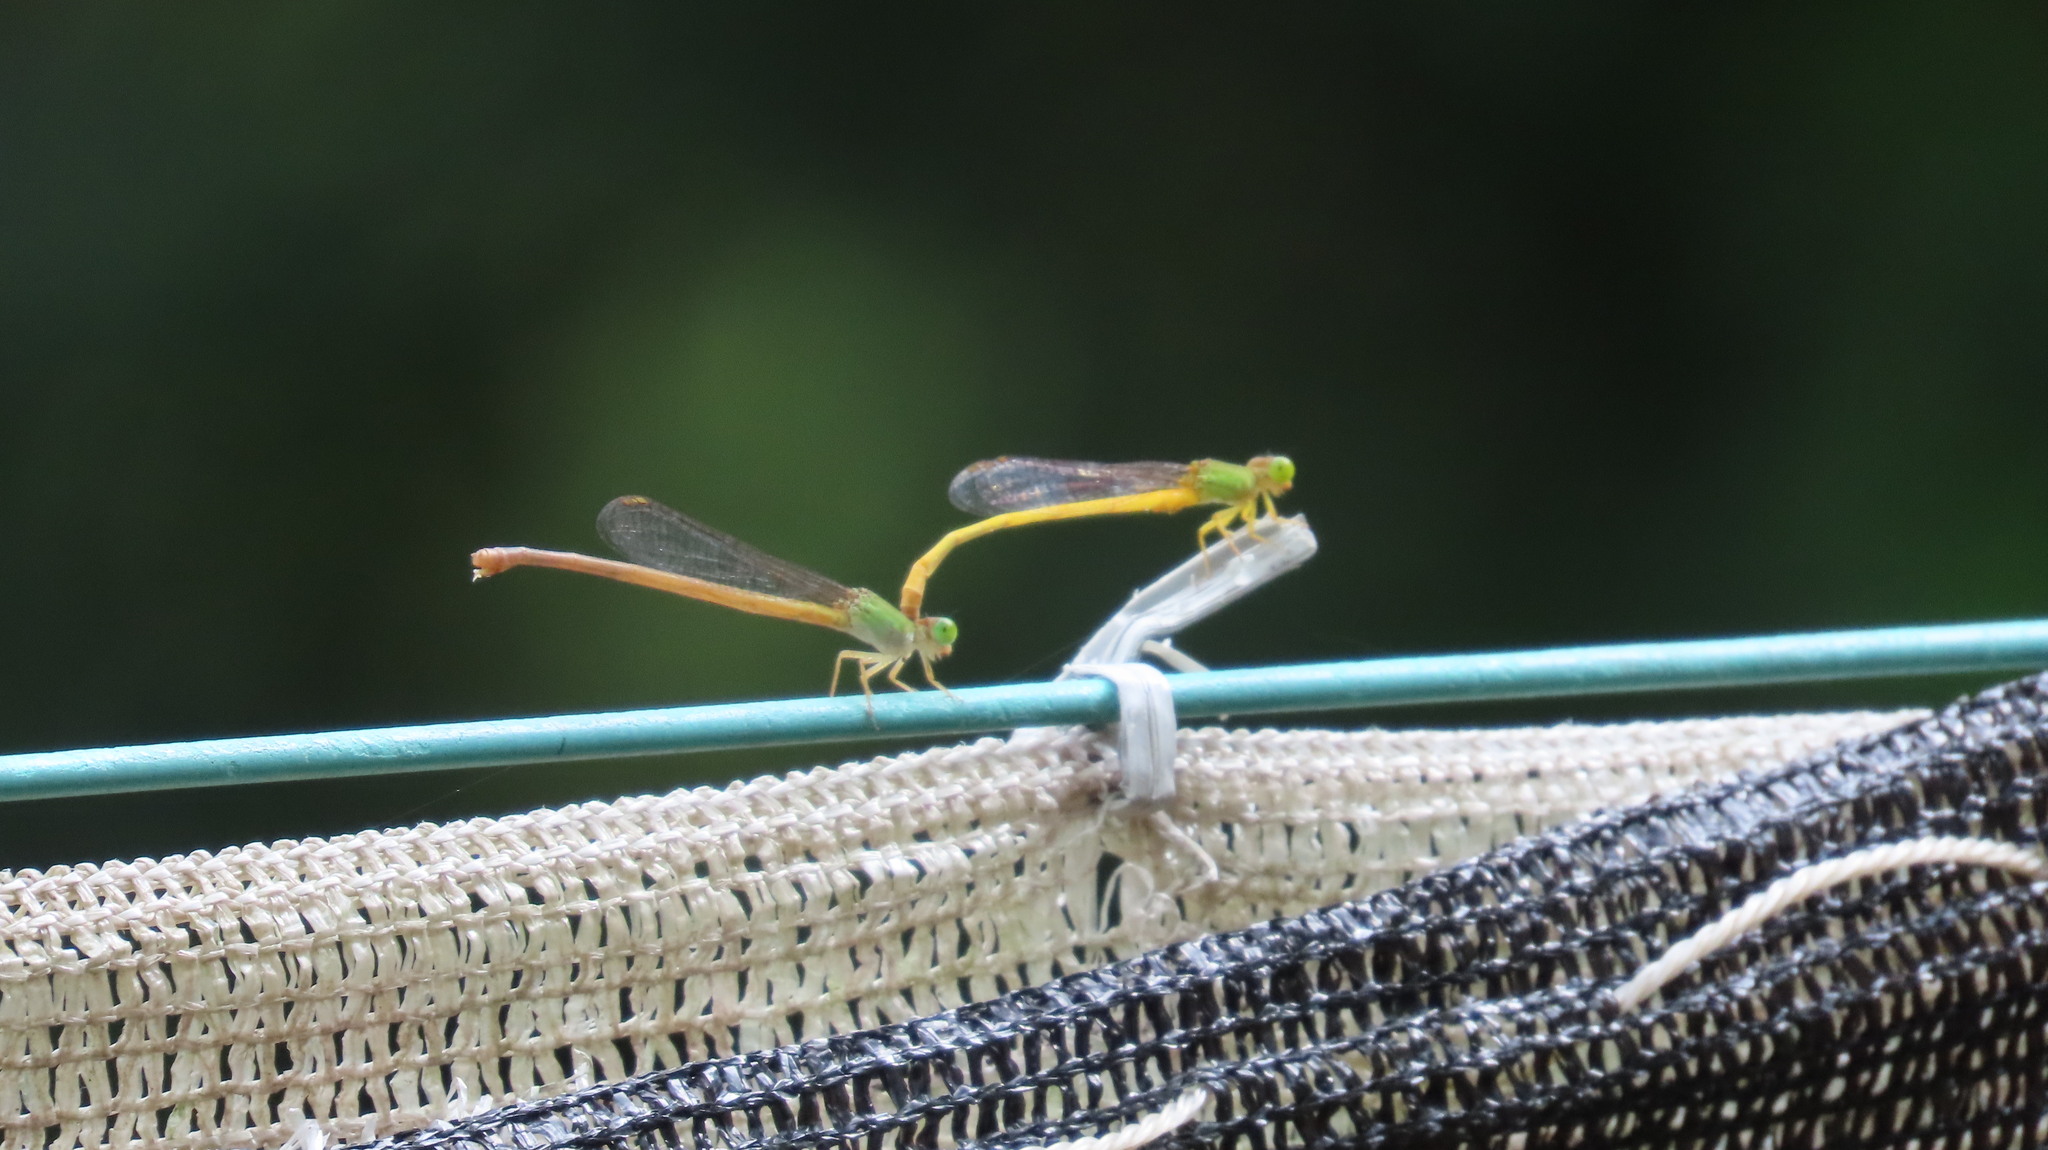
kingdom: Animalia
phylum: Arthropoda
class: Insecta
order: Odonata
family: Coenagrionidae
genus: Ceriagrion
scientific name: Ceriagrion coromandelianum
